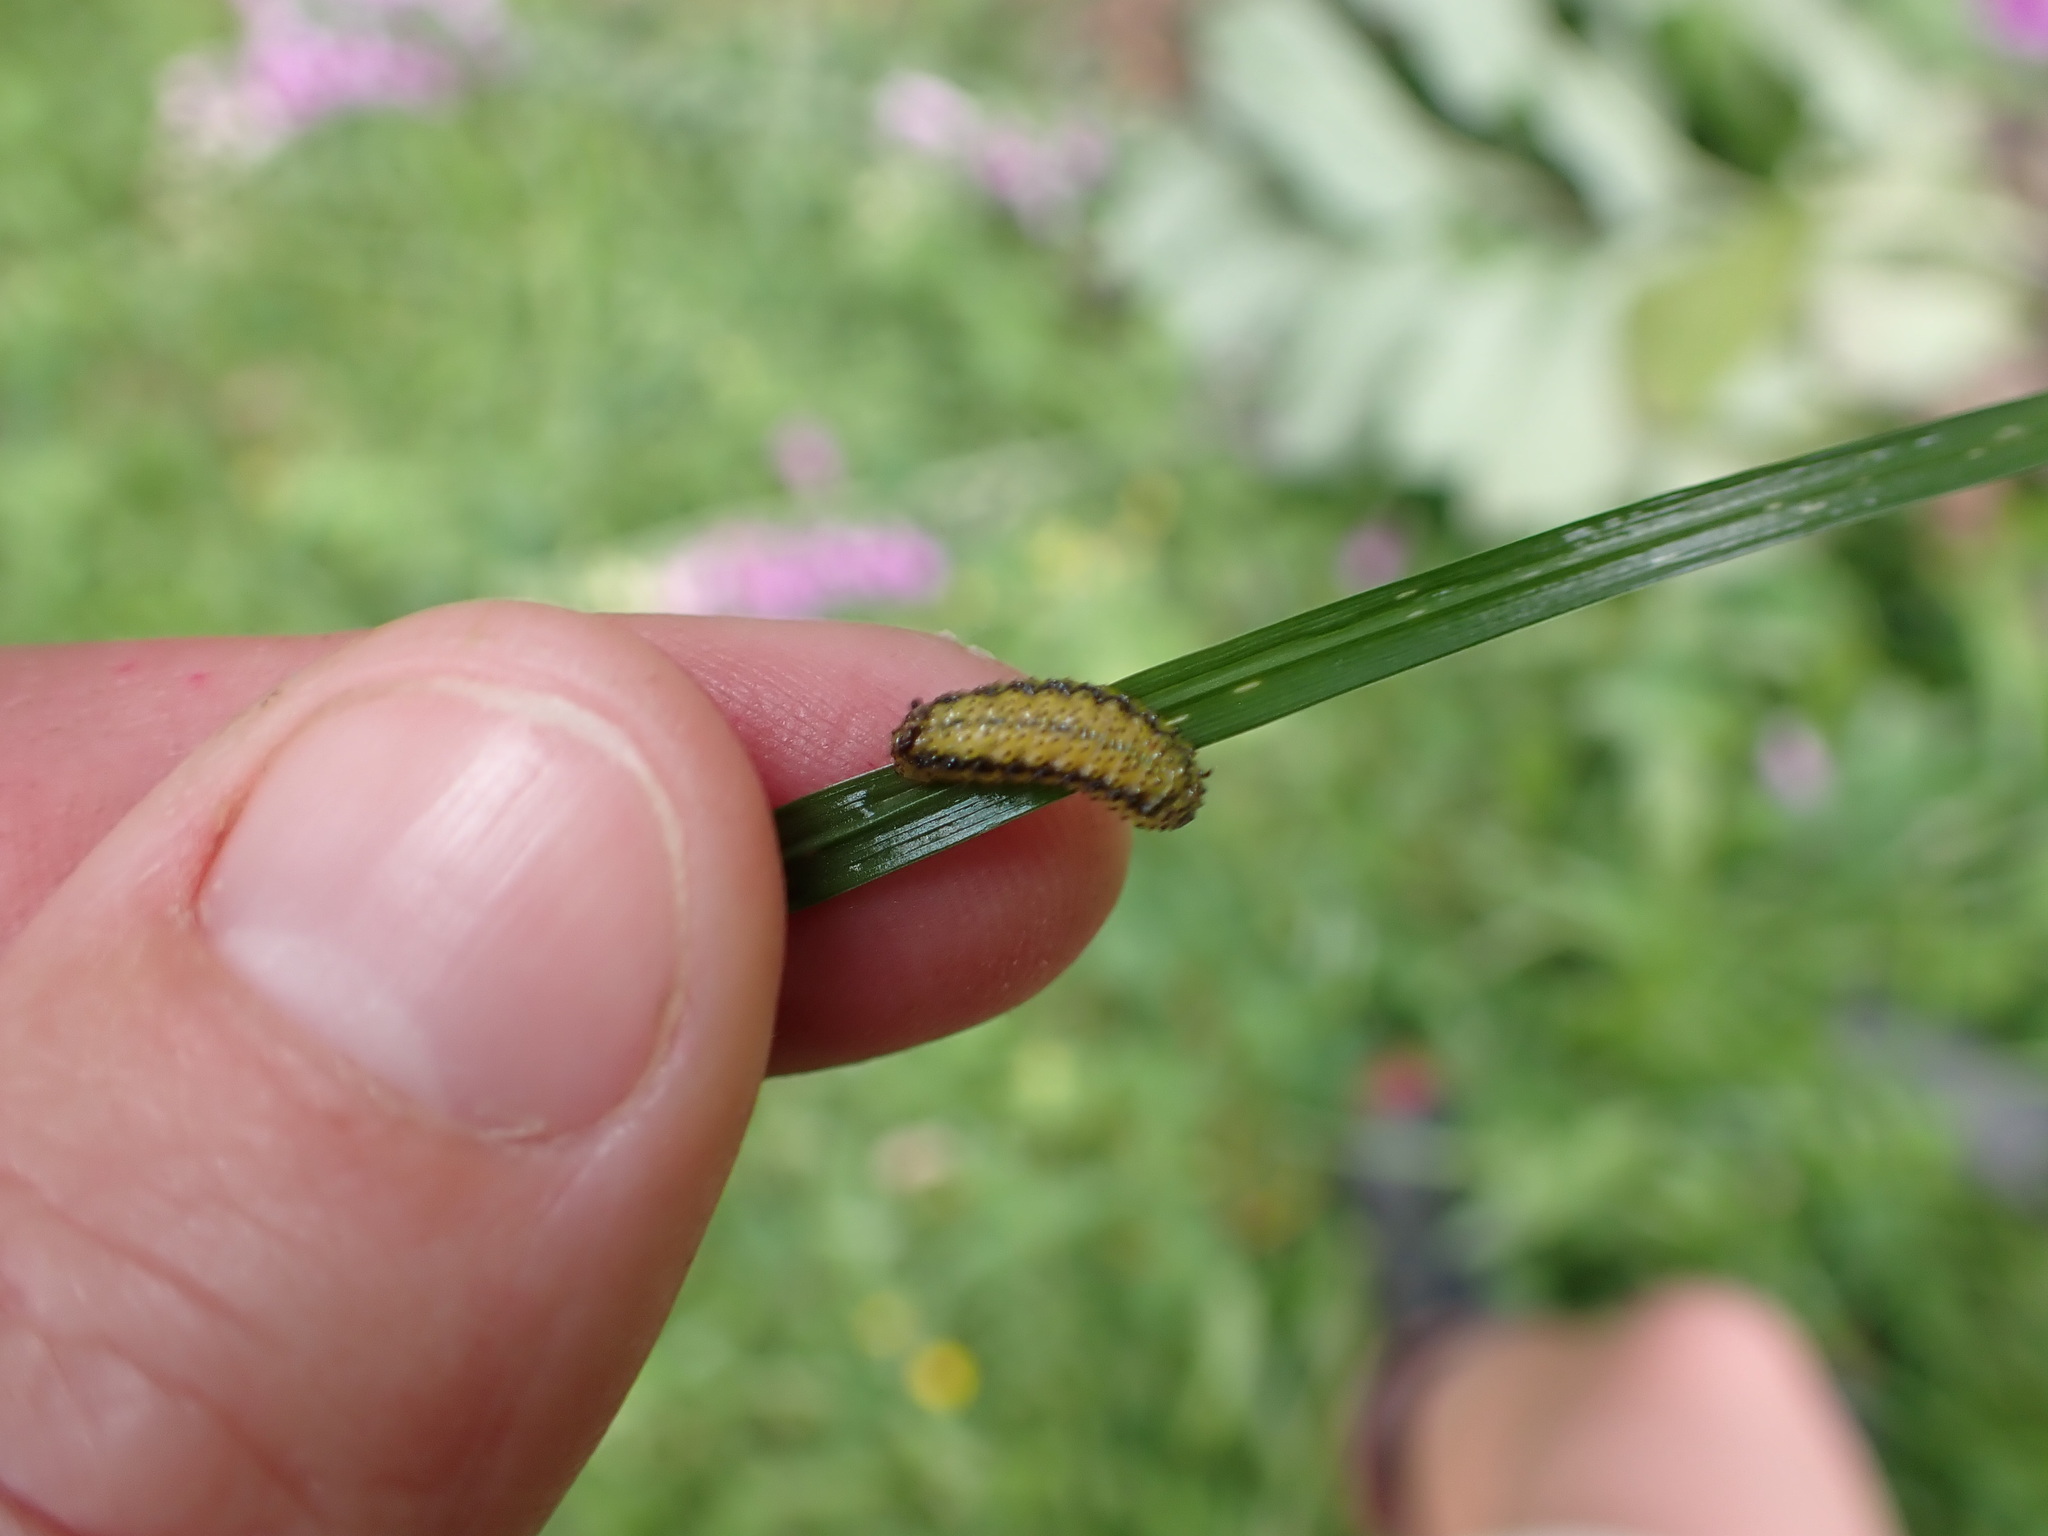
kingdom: Animalia
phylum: Arthropoda
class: Insecta
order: Coleoptera
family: Curculionidae
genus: Gonipterus
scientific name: Gonipterus platensis
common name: Eucalyptus snout beetle
